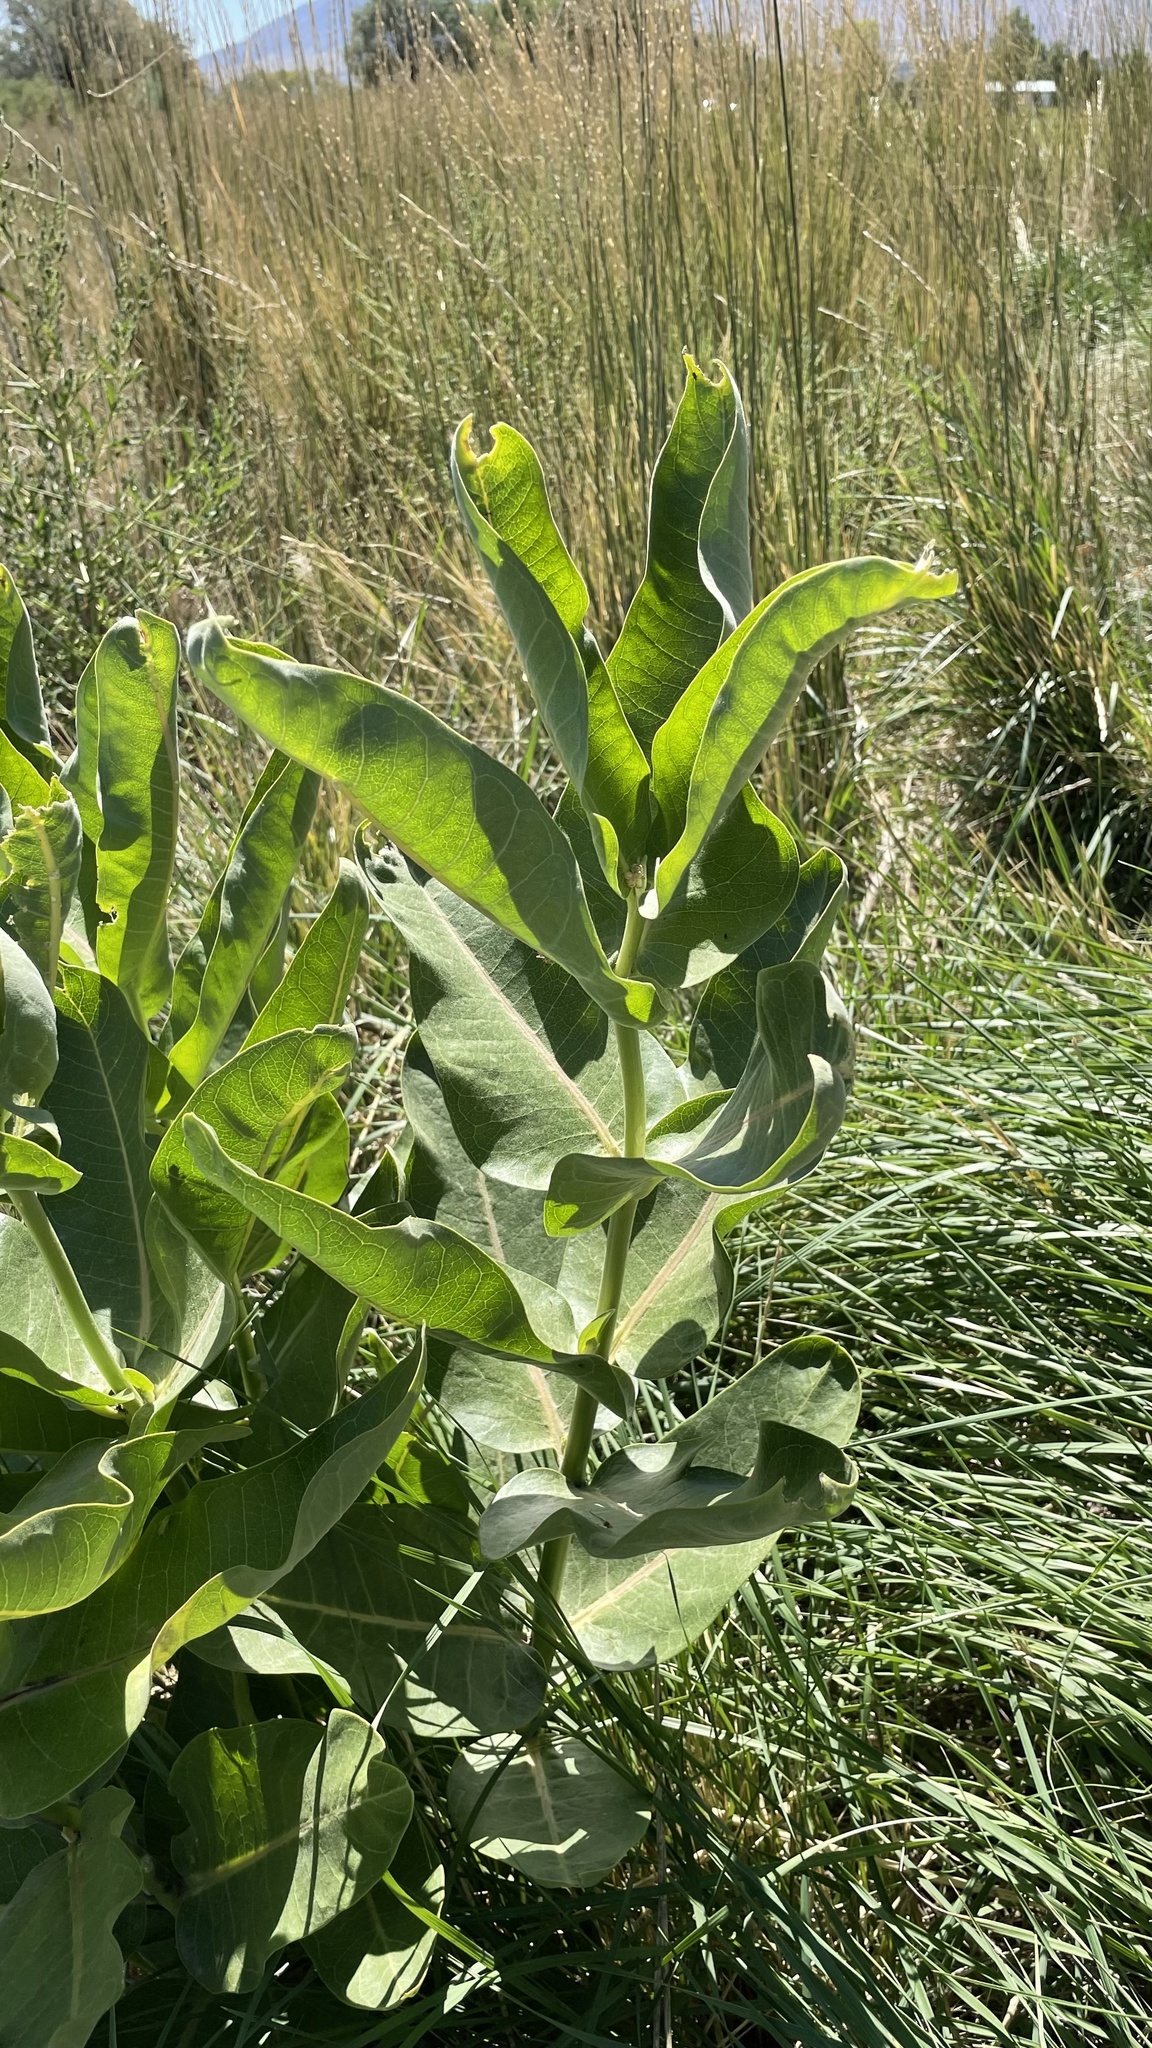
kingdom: Plantae
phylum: Tracheophyta
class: Magnoliopsida
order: Gentianales
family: Apocynaceae
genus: Asclepias
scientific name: Asclepias speciosa
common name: Showy milkweed
